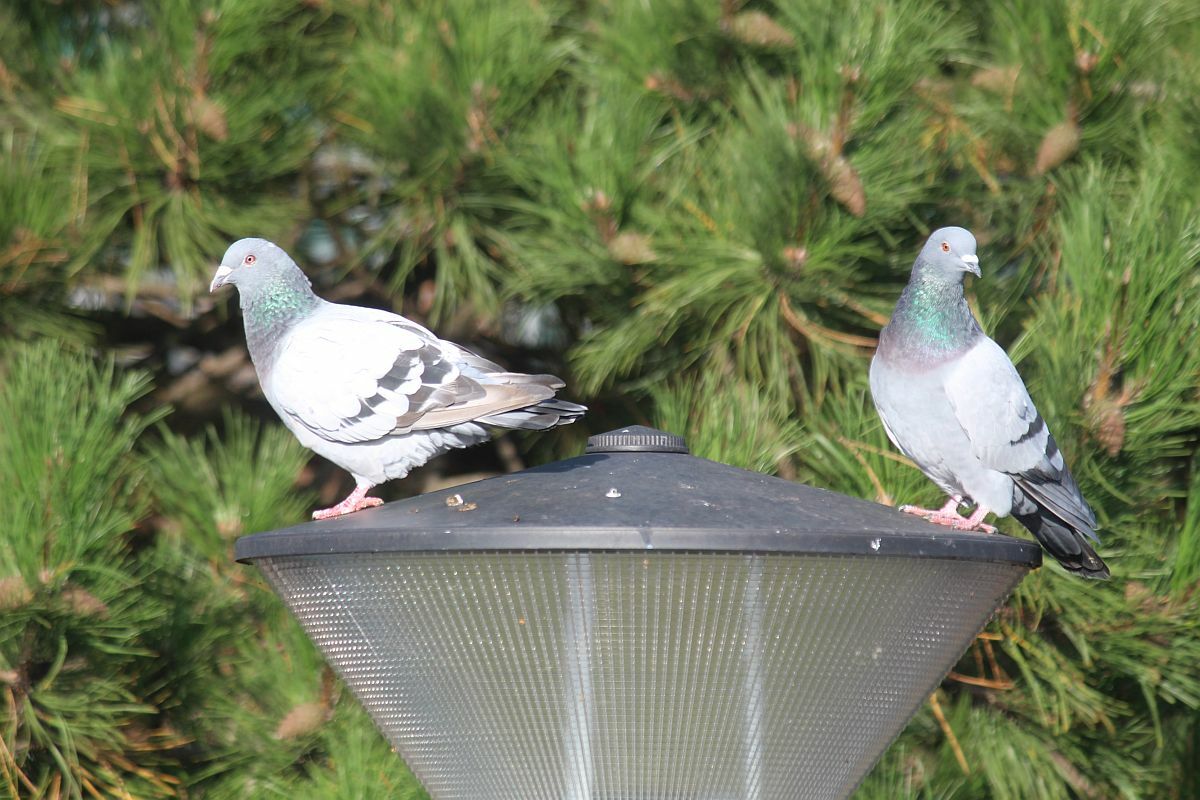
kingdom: Animalia
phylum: Chordata
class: Aves
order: Columbiformes
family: Columbidae
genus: Columba
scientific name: Columba livia
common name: Rock pigeon
